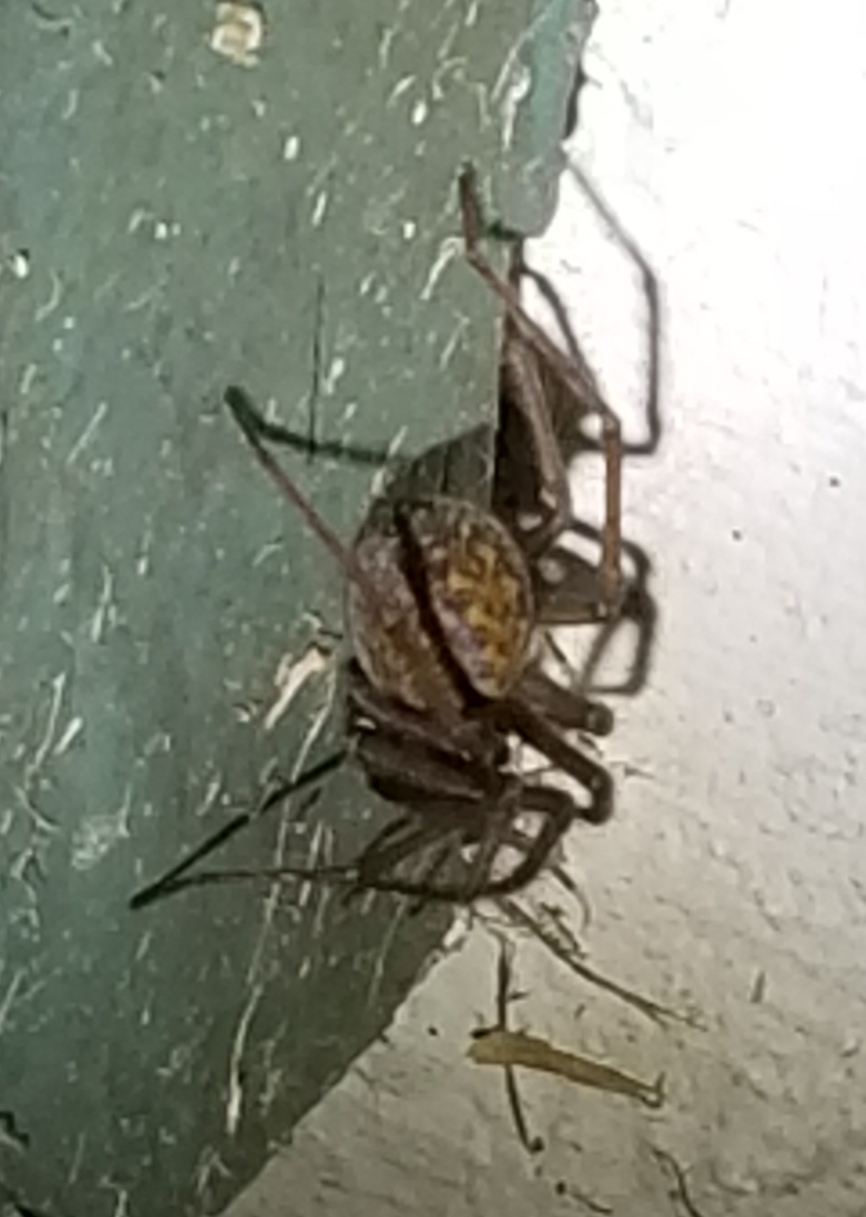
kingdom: Animalia
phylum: Arthropoda
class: Arachnida
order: Araneae
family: Agelenidae
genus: Eratigena
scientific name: Eratigena duellica
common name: Giant house spider
